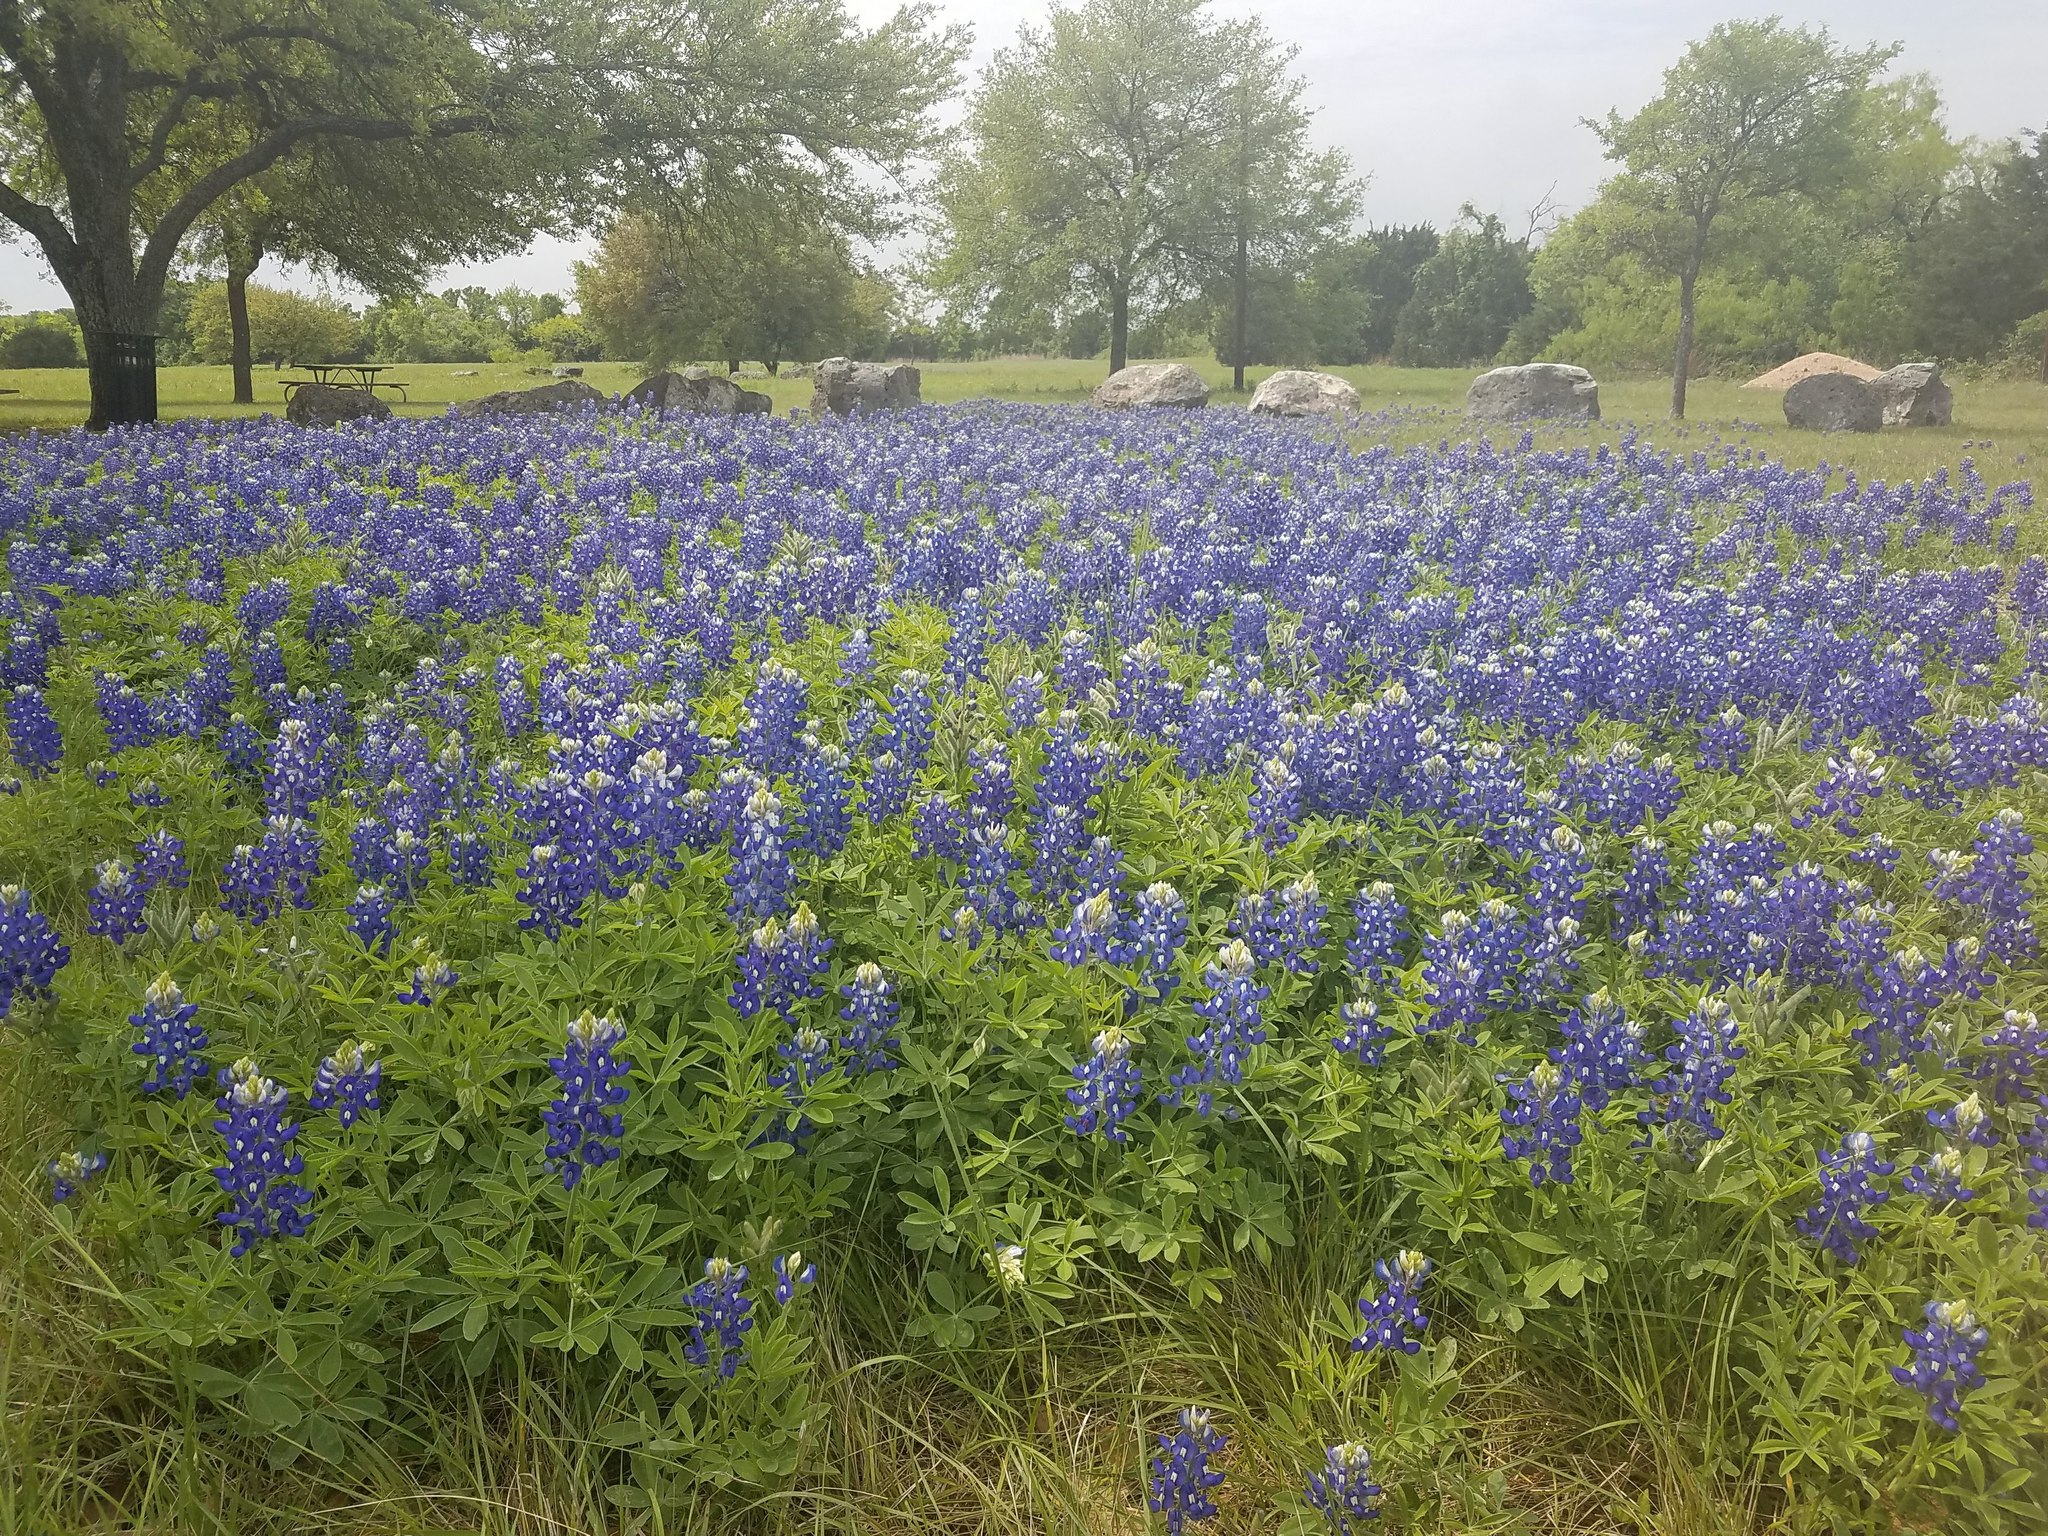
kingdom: Plantae
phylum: Tracheophyta
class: Magnoliopsida
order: Fabales
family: Fabaceae
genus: Lupinus
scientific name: Lupinus texensis
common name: Texas bluebonnet
